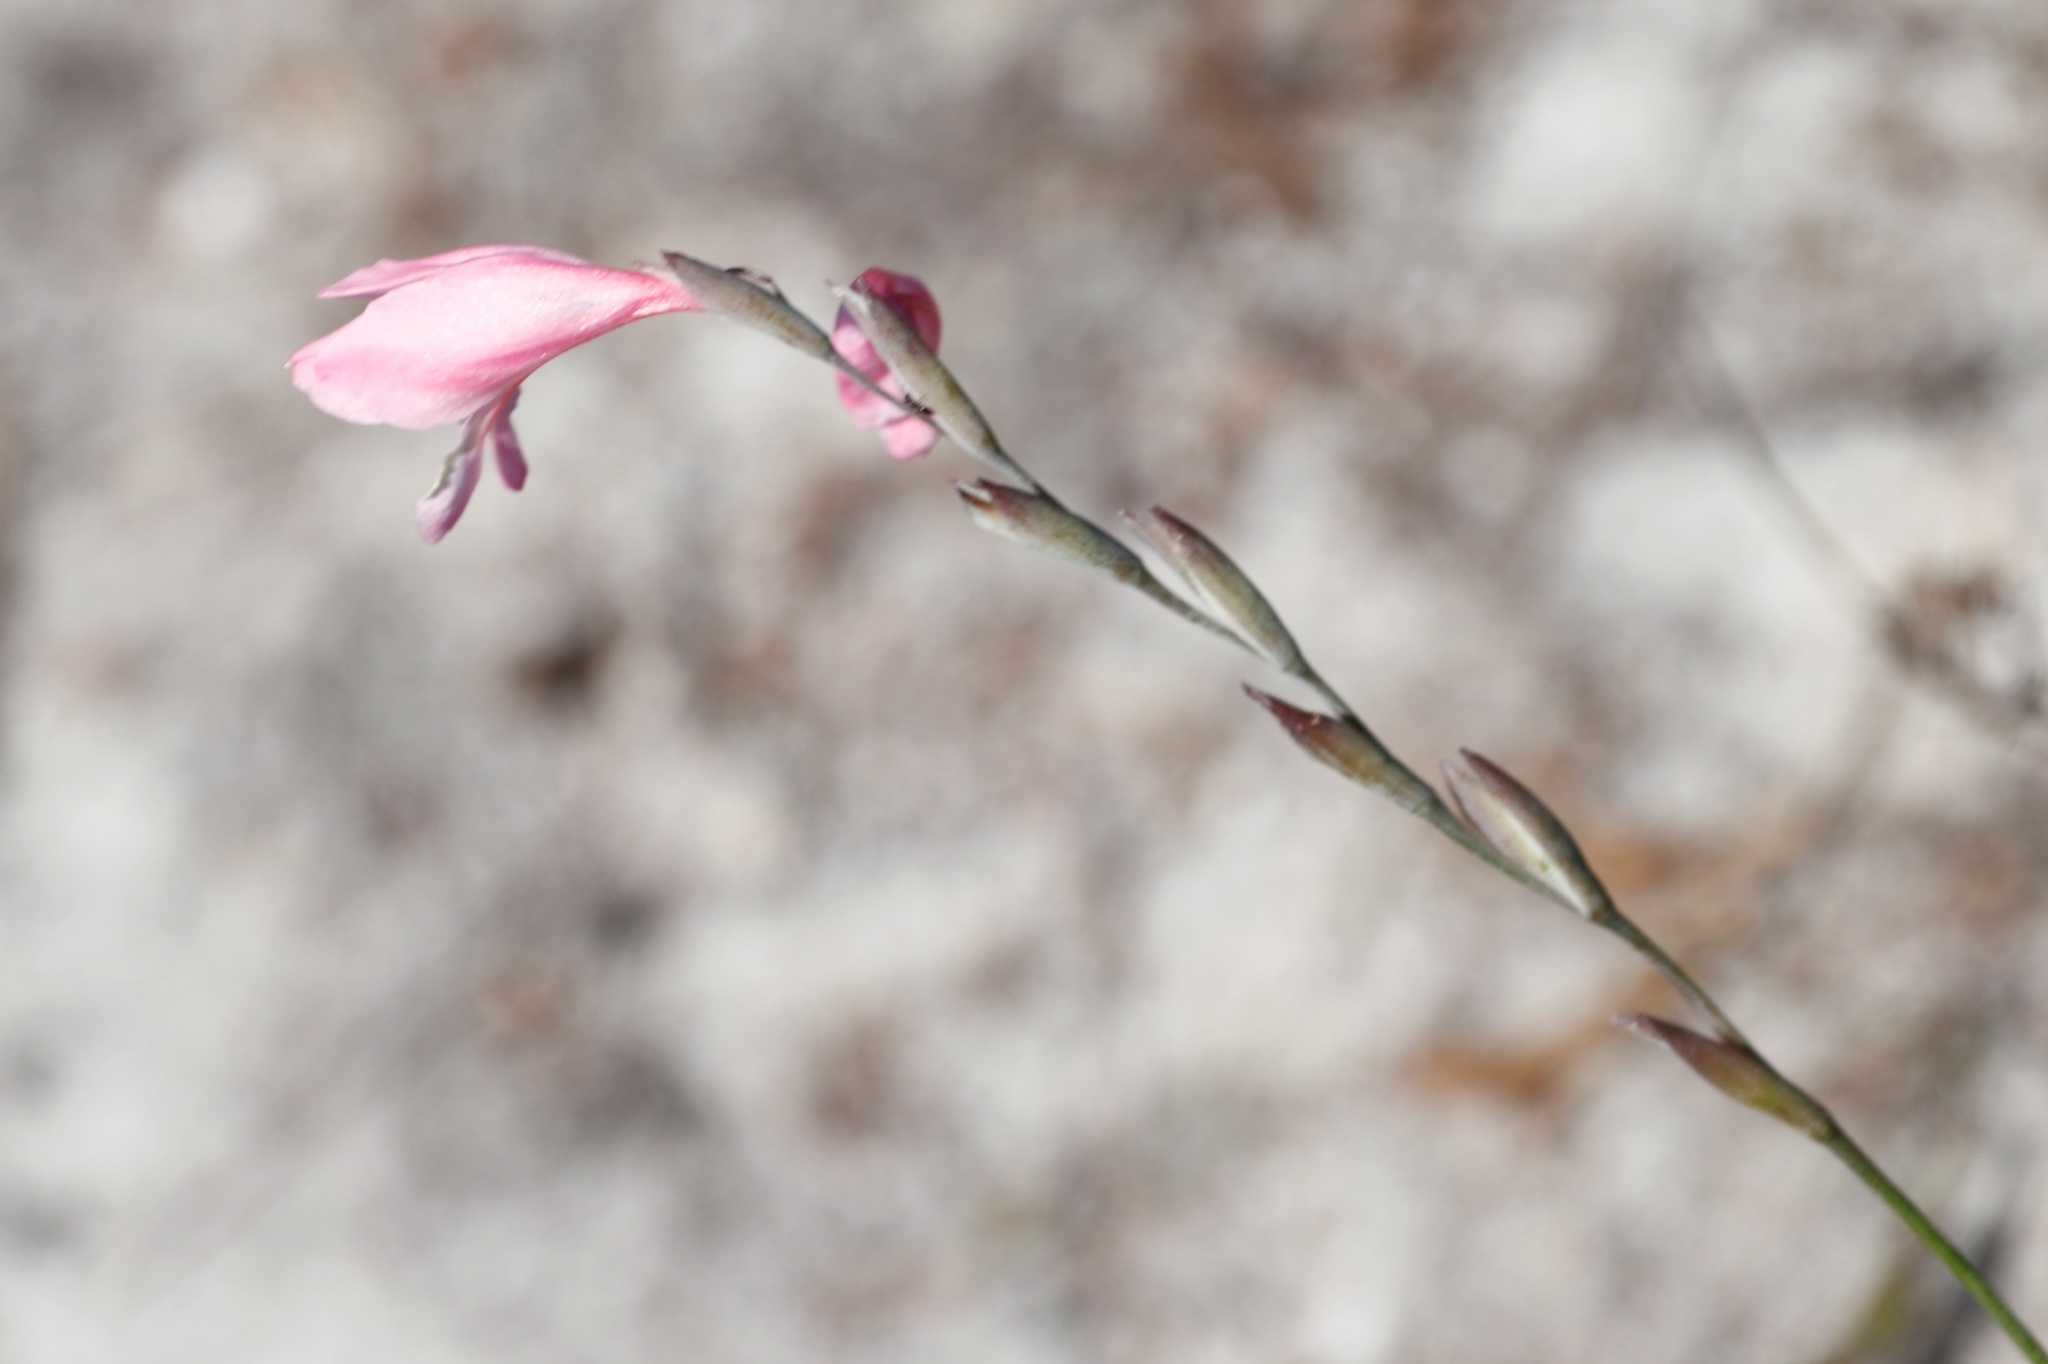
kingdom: Plantae
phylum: Tracheophyta
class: Liliopsida
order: Asparagales
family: Iridaceae
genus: Gladiolus
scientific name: Gladiolus brevifolius
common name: March pypie
